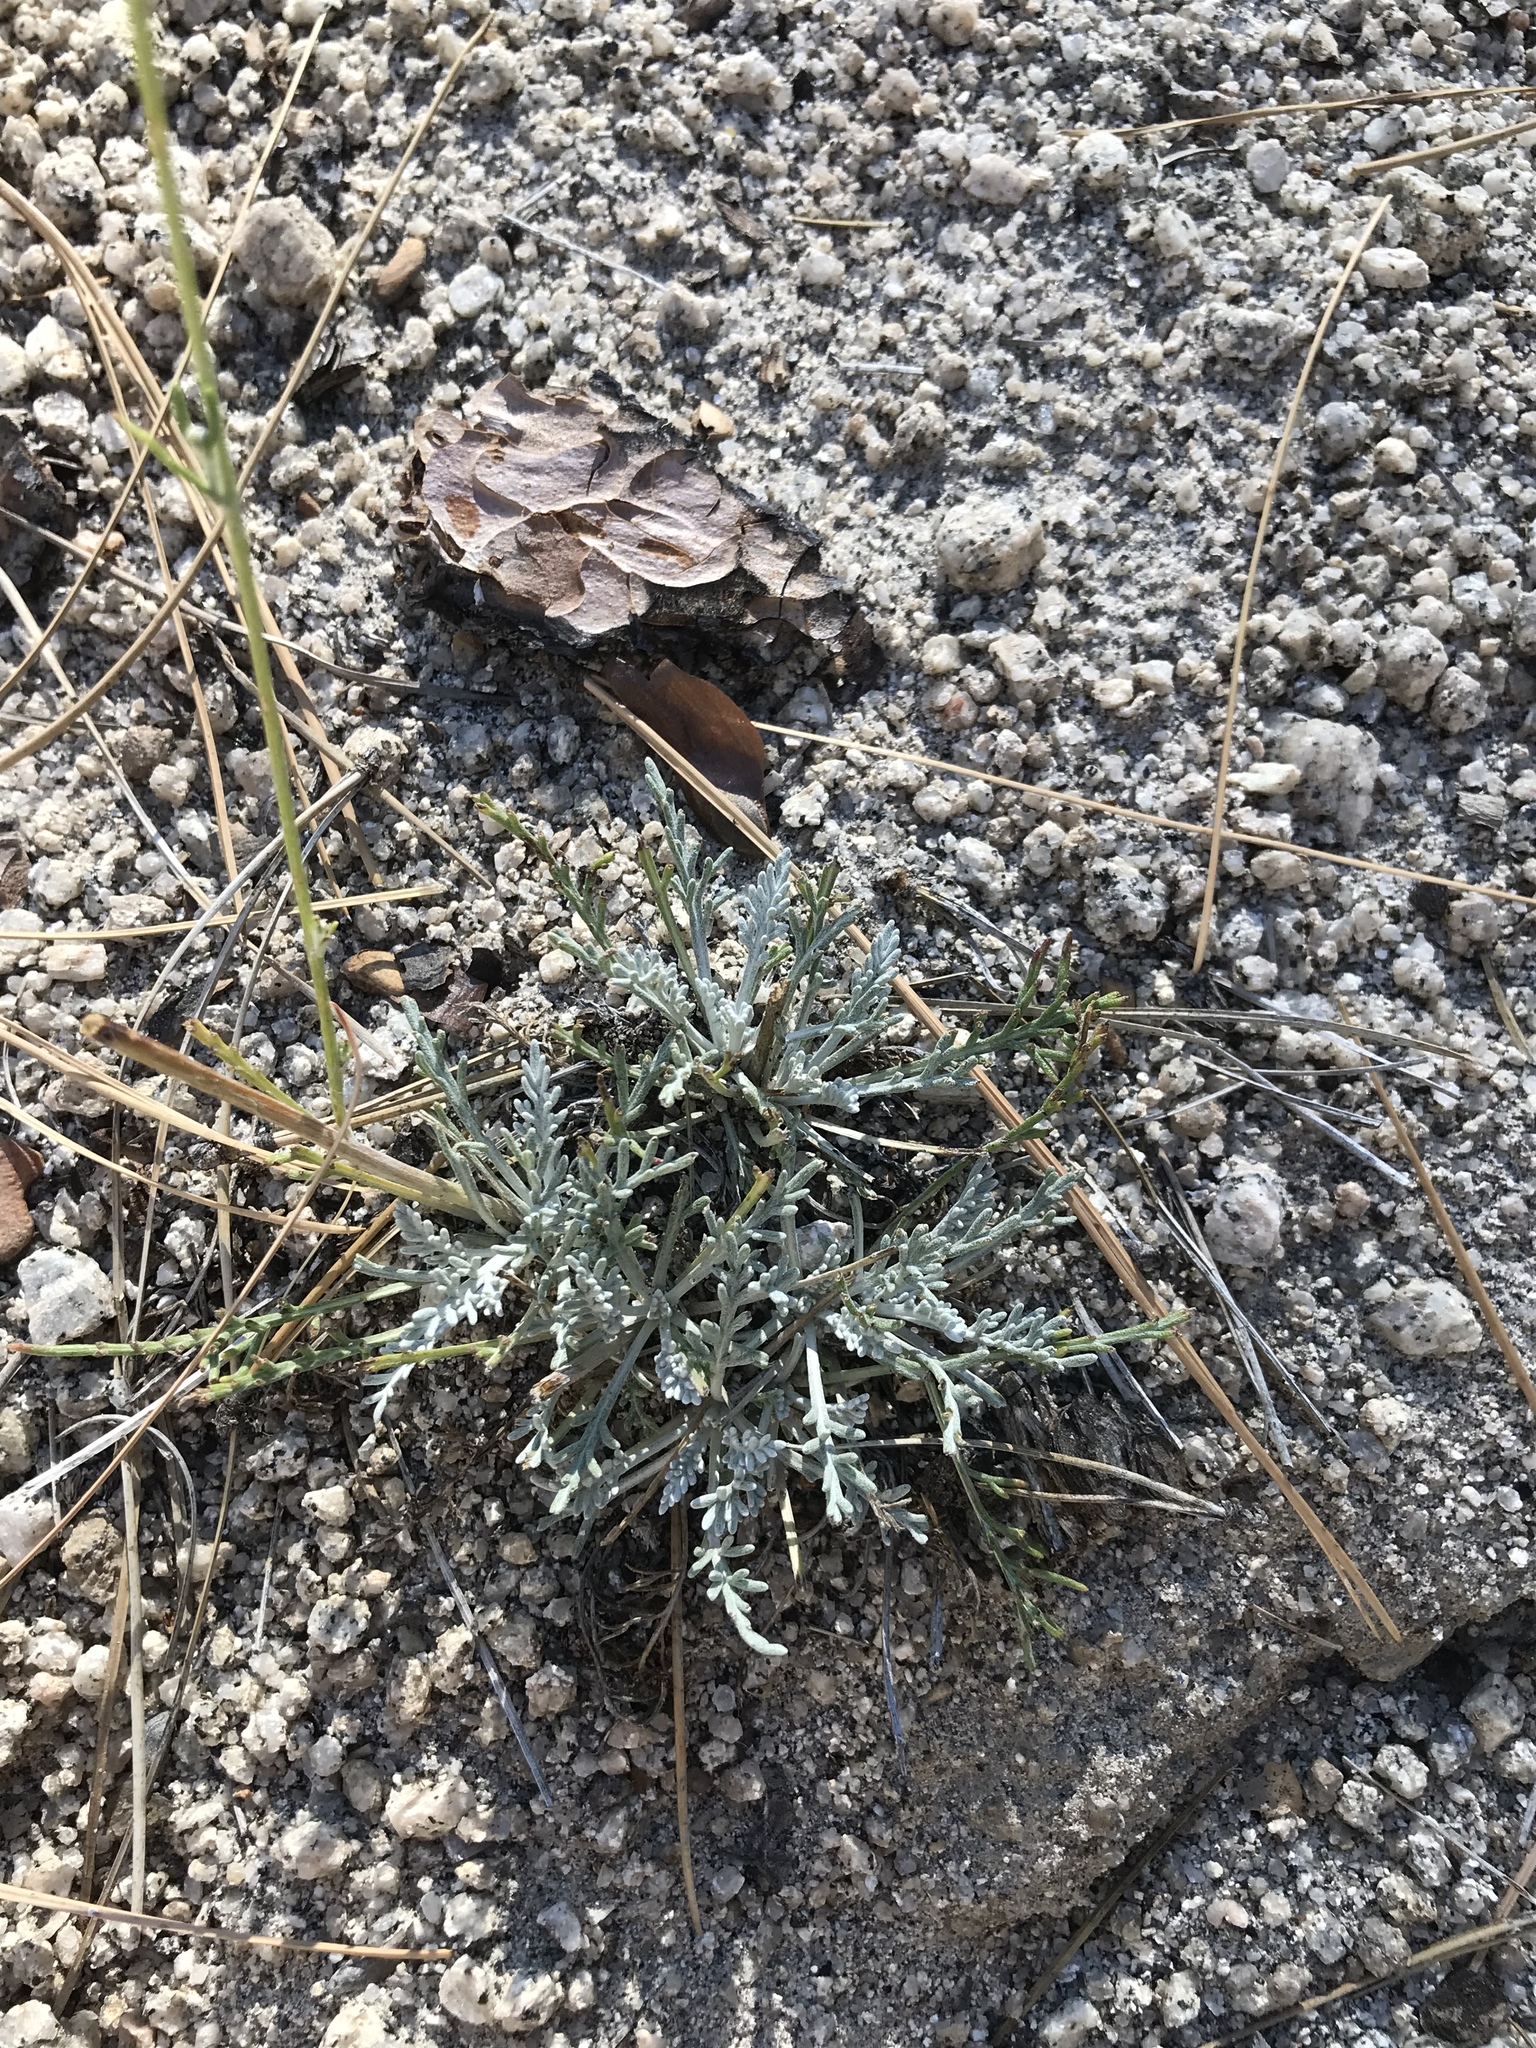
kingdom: Plantae
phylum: Tracheophyta
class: Magnoliopsida
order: Asterales
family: Asteraceae
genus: Hymenopappus
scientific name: Hymenopappus filifolius
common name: Columbia cutleaf
